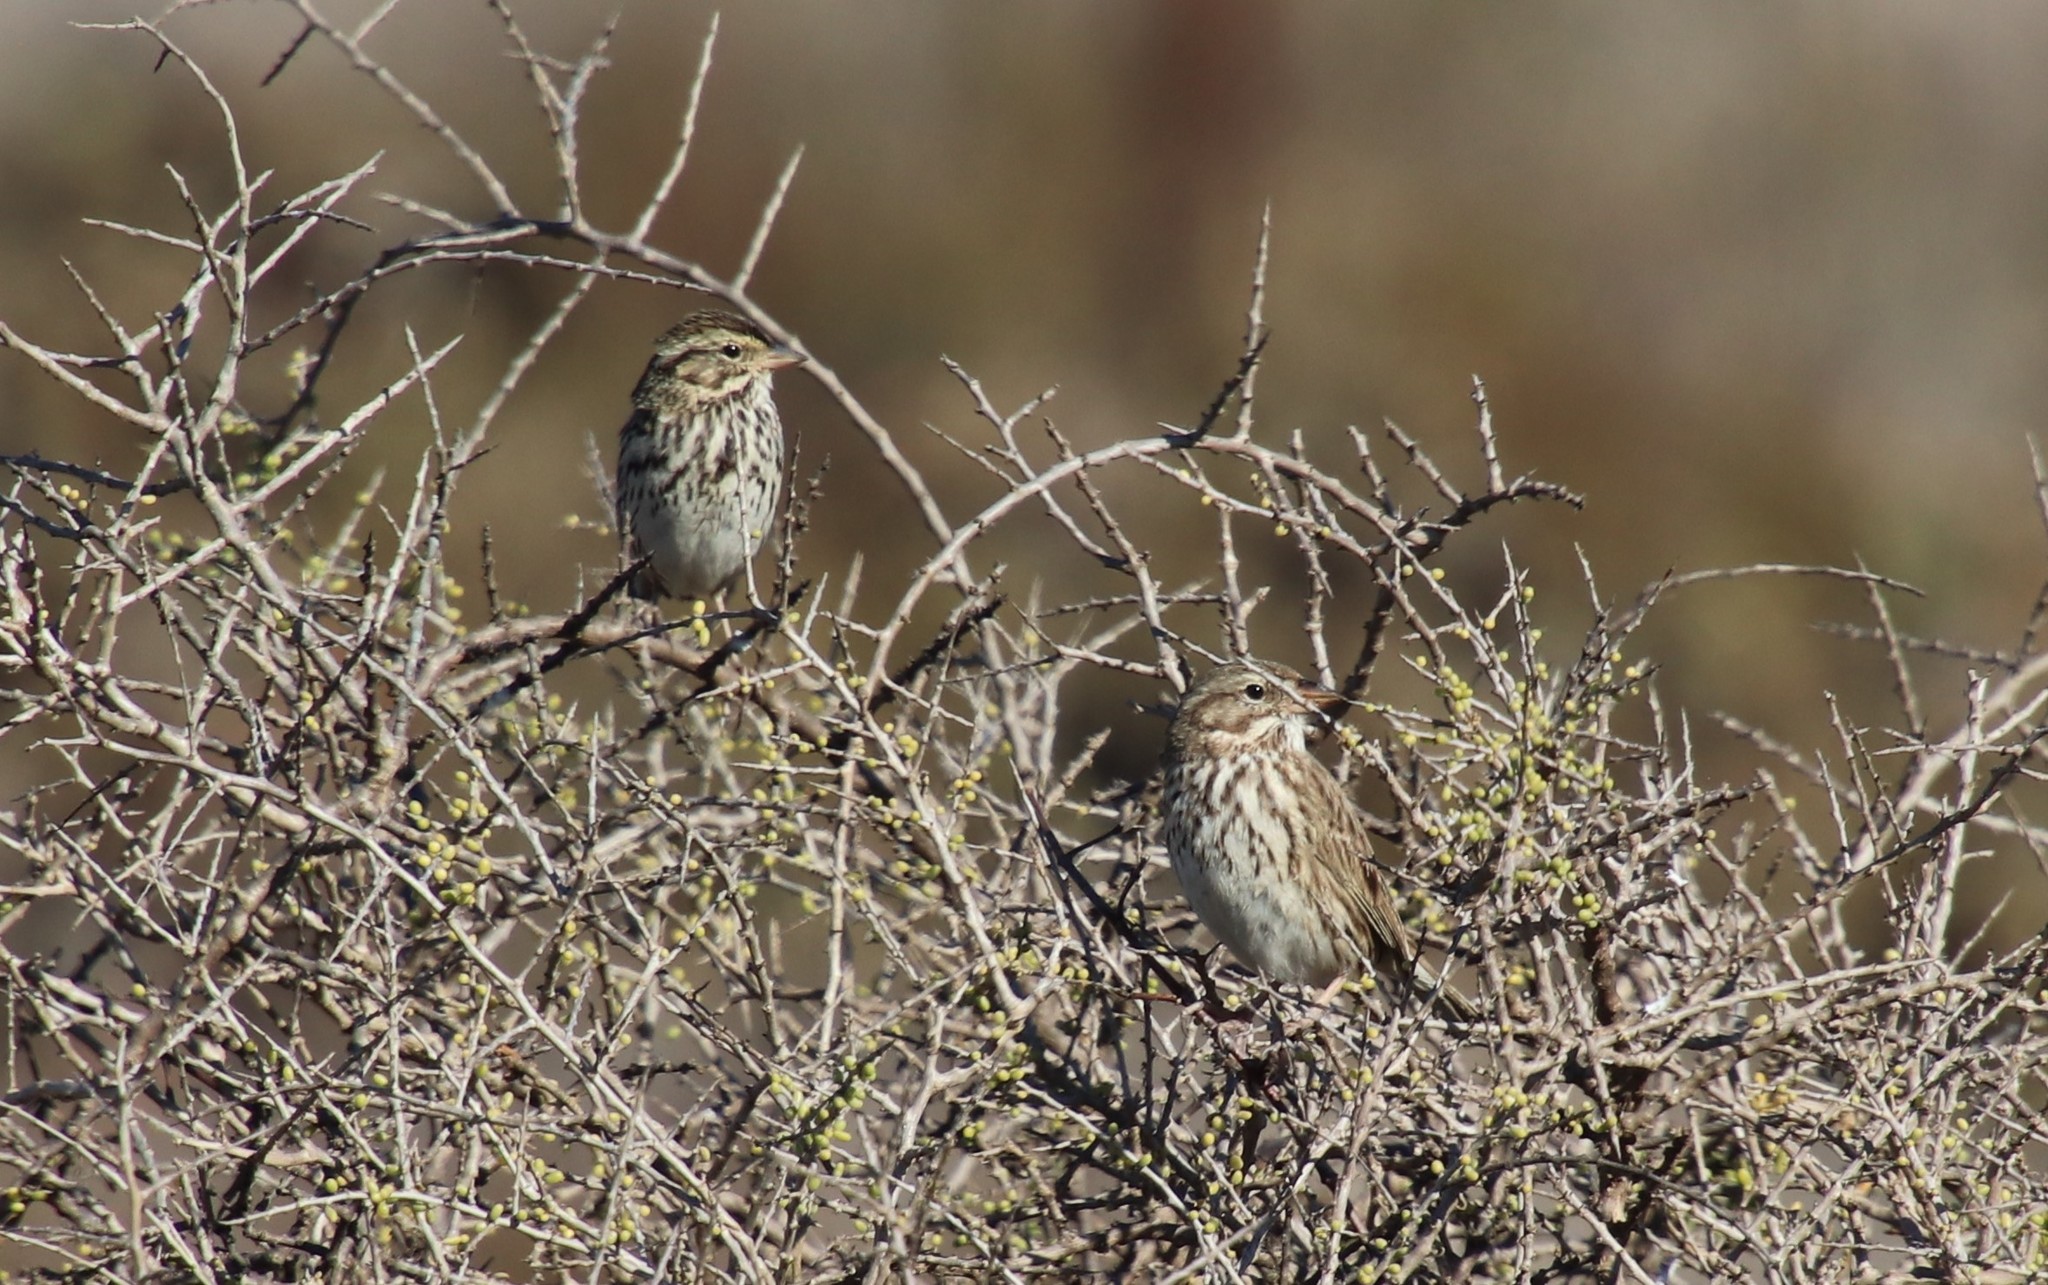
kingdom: Animalia
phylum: Chordata
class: Aves
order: Passeriformes
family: Passerellidae
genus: Passerculus
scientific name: Passerculus sandwichensis
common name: Savannah sparrow
